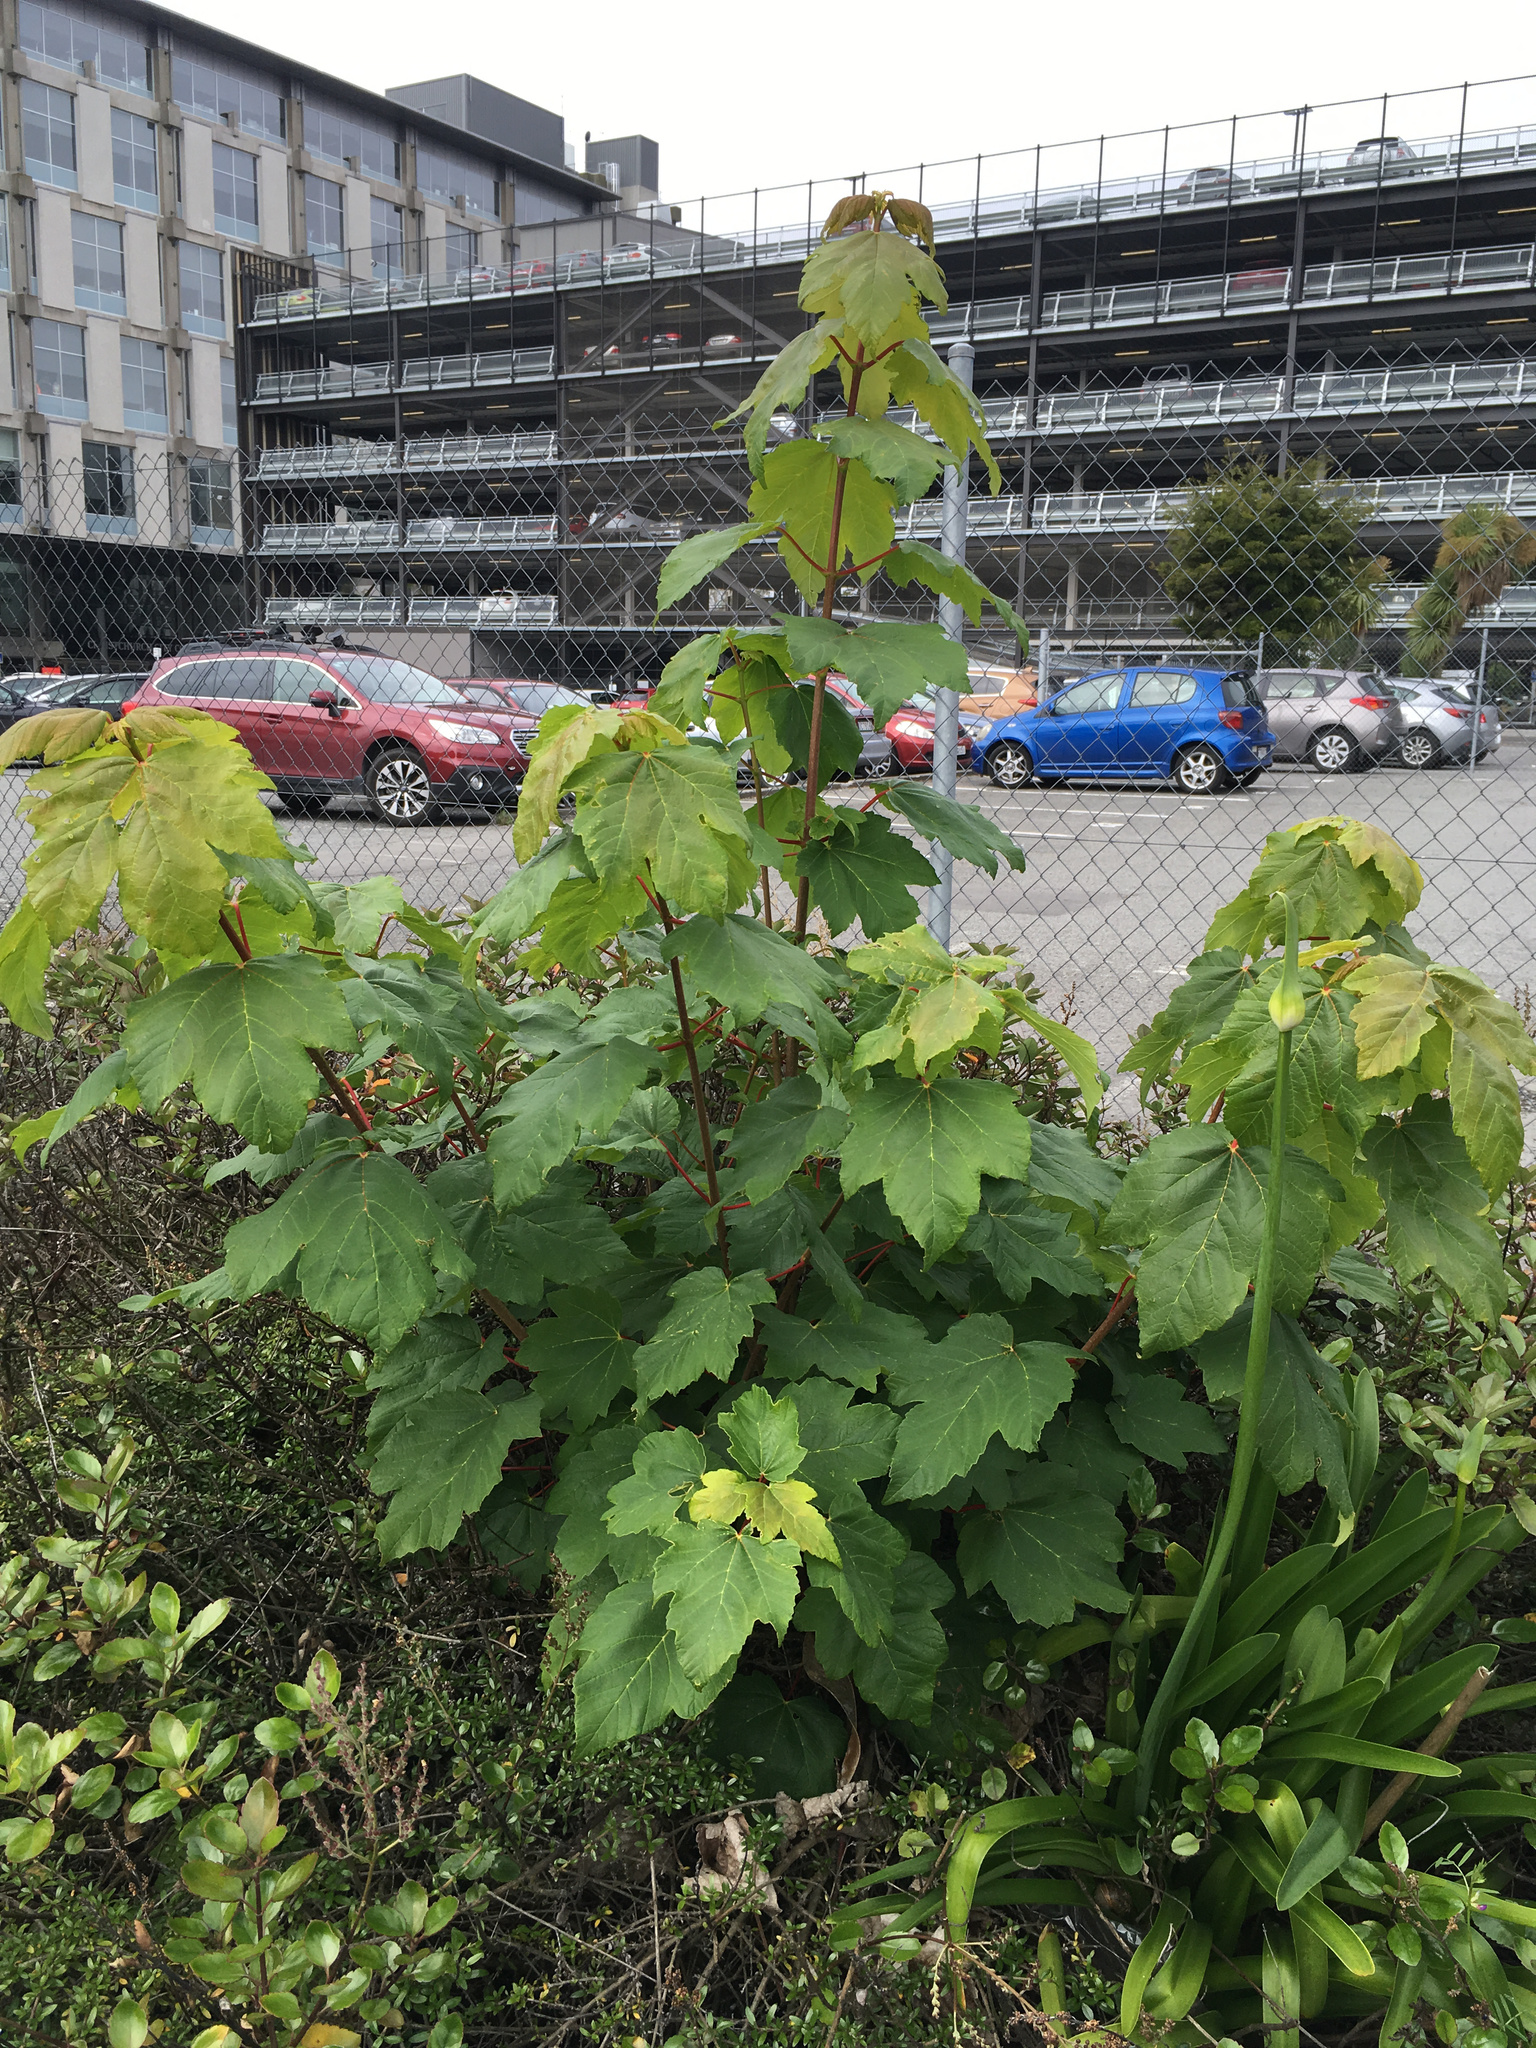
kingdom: Plantae
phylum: Tracheophyta
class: Magnoliopsida
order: Sapindales
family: Sapindaceae
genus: Acer
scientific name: Acer pseudoplatanus
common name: Sycamore
